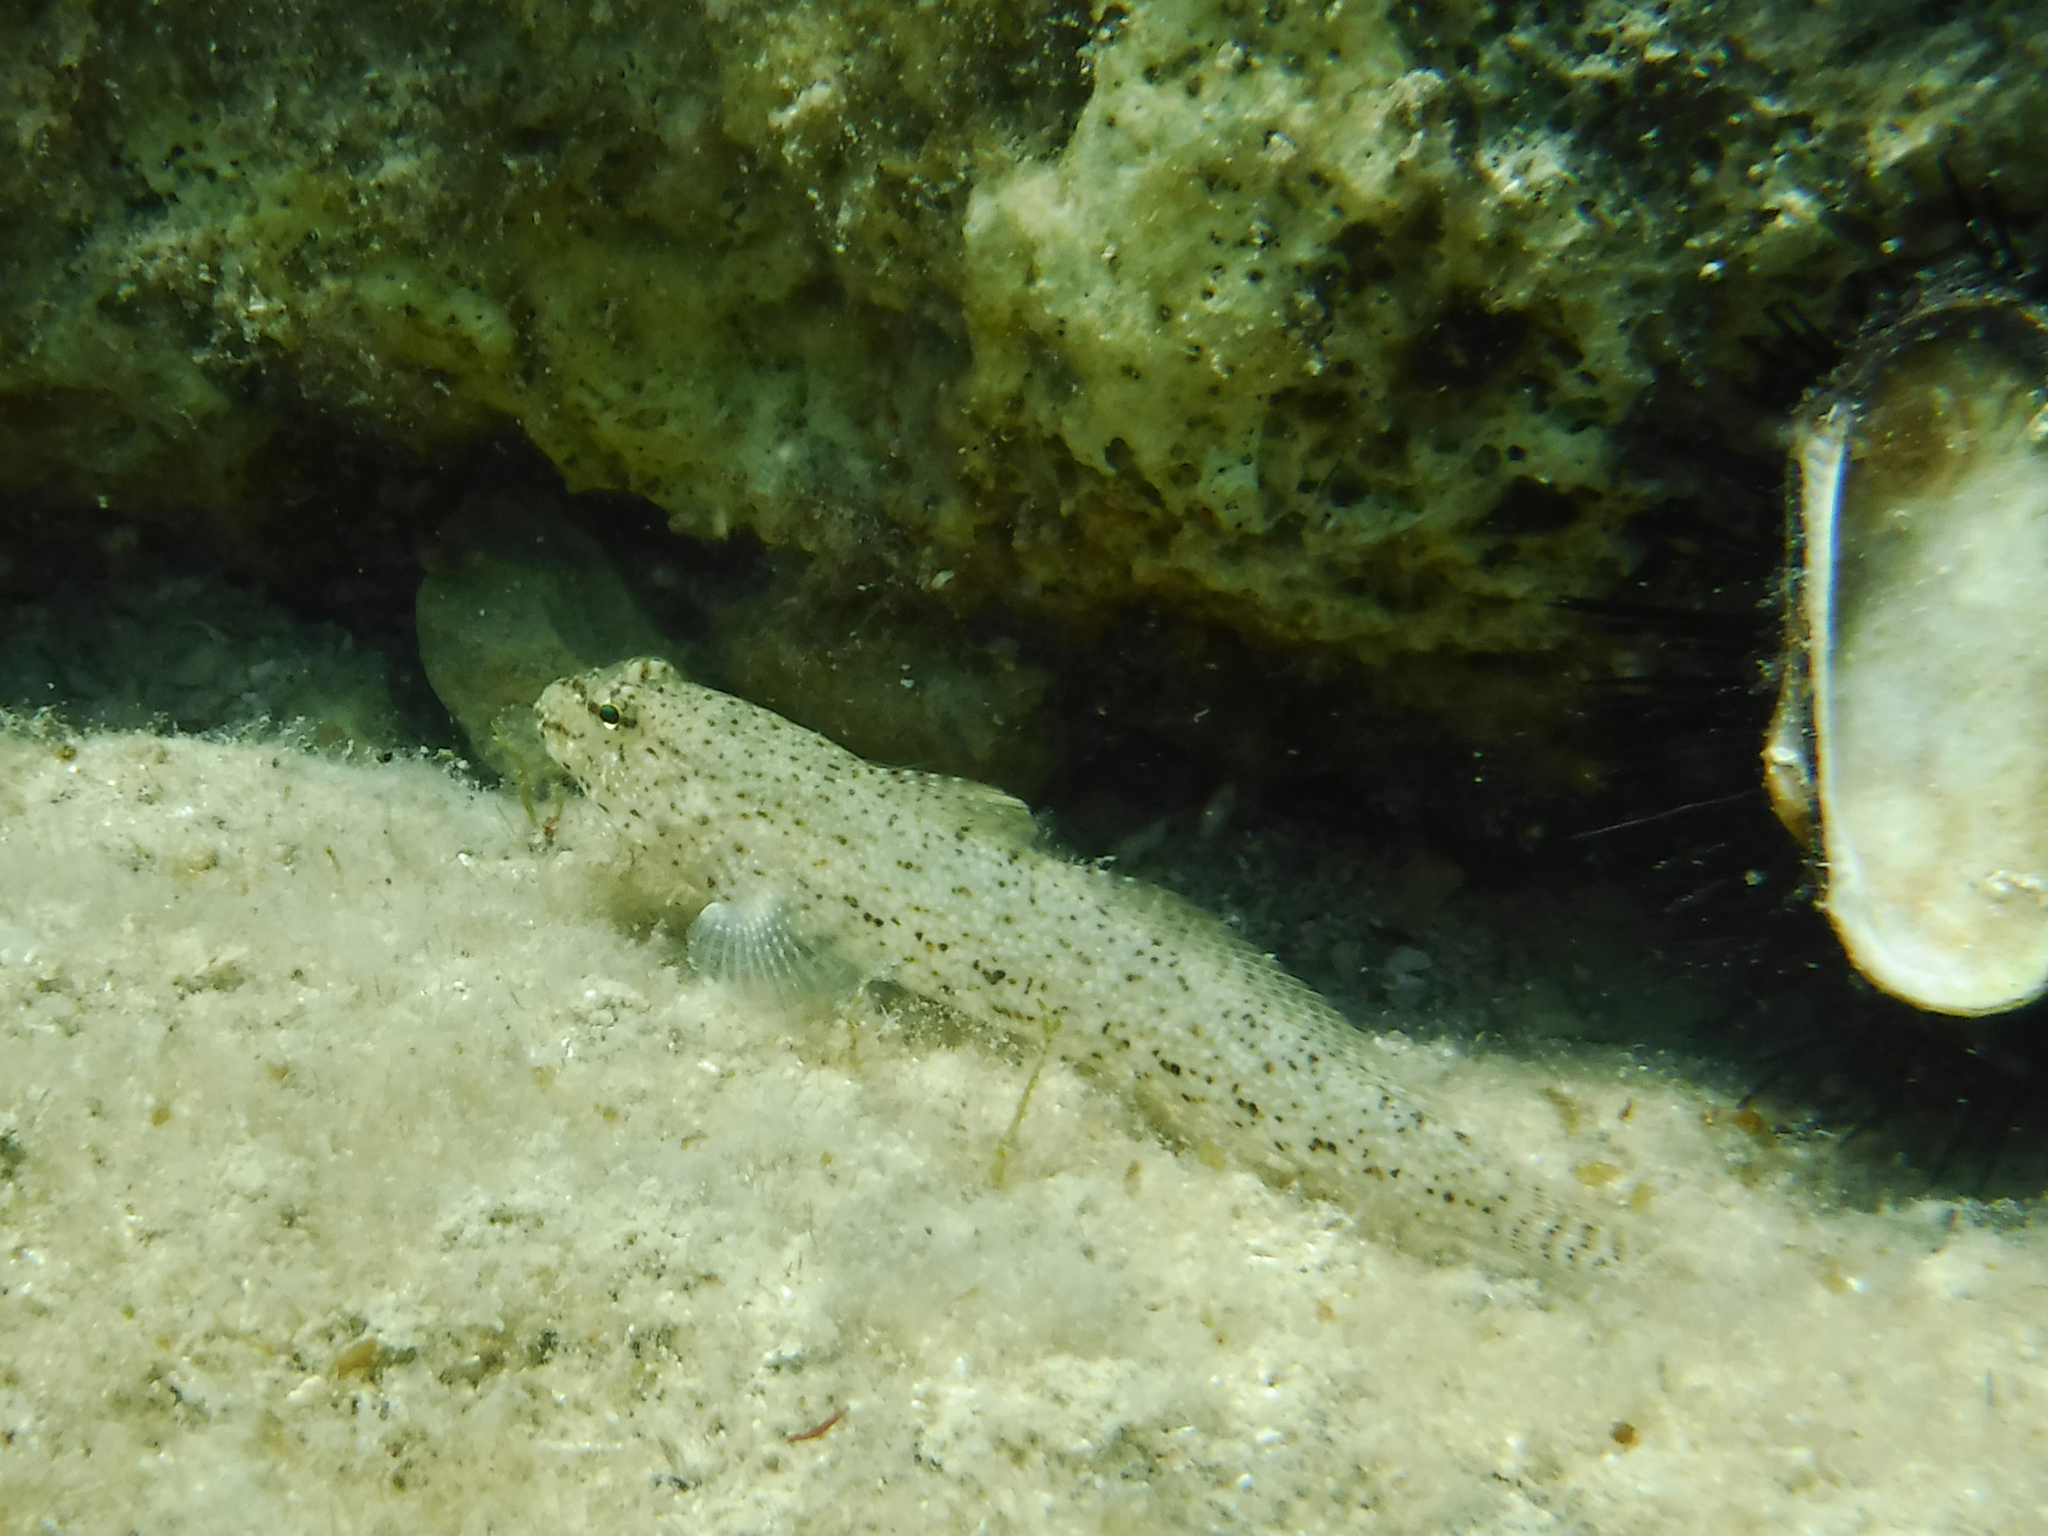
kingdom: Animalia
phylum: Chordata
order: Perciformes
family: Gobiidae
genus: Gobius
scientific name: Gobius incognitus
